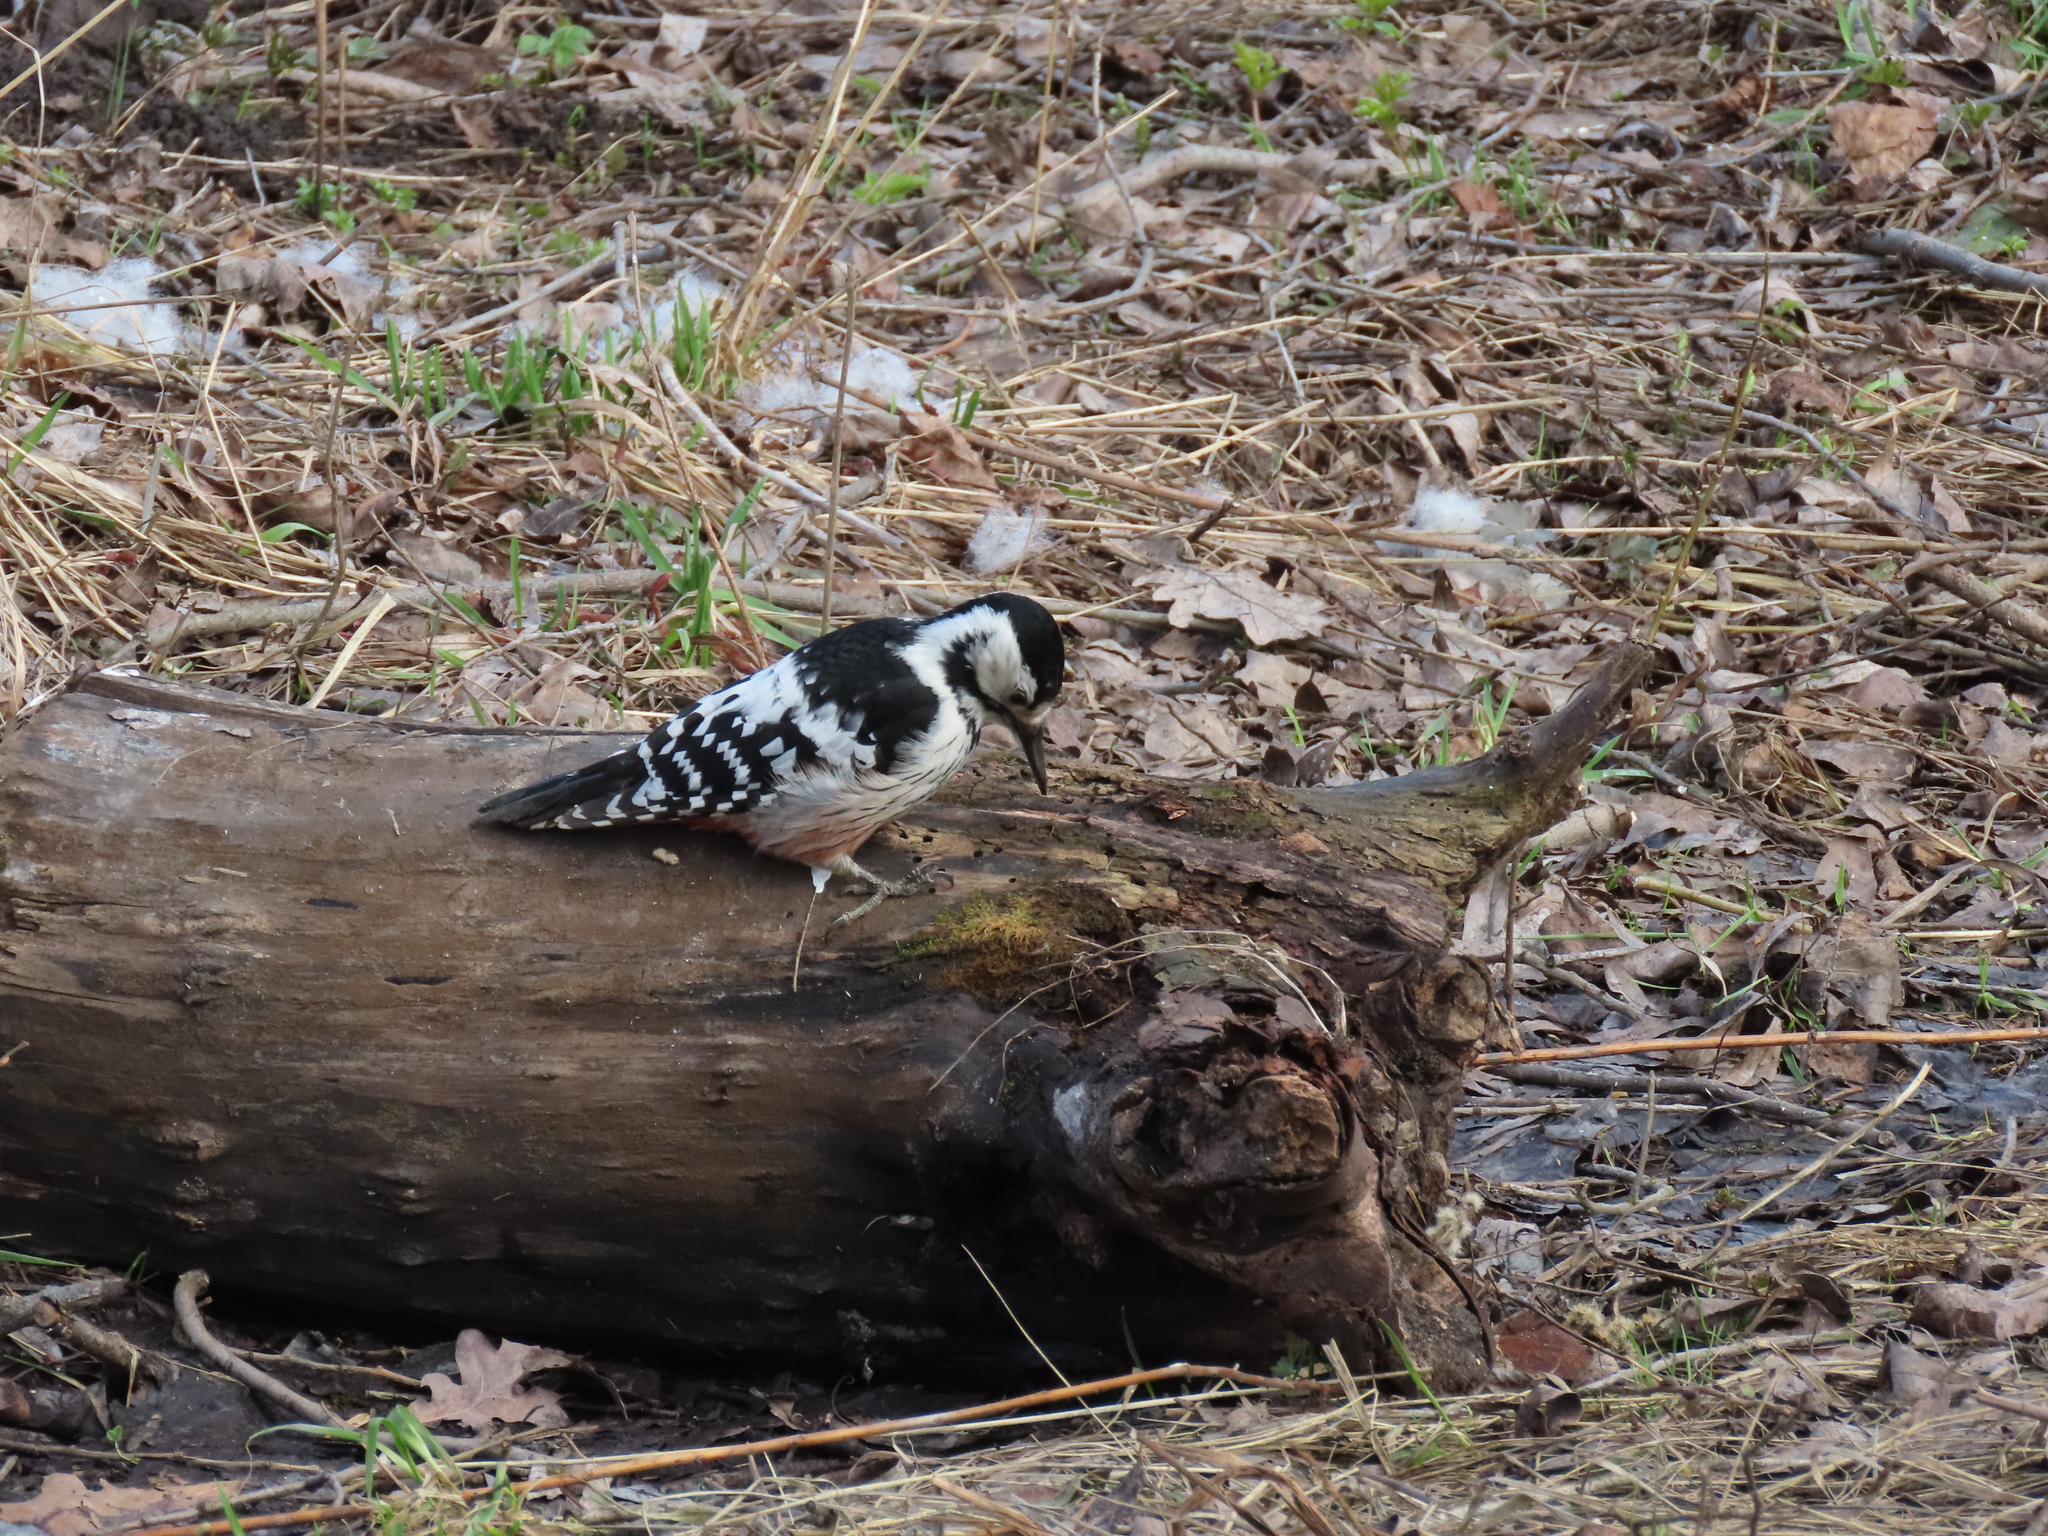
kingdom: Animalia
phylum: Chordata
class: Aves
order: Piciformes
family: Picidae
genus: Dendrocopos
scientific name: Dendrocopos leucotos
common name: White-backed woodpecker
